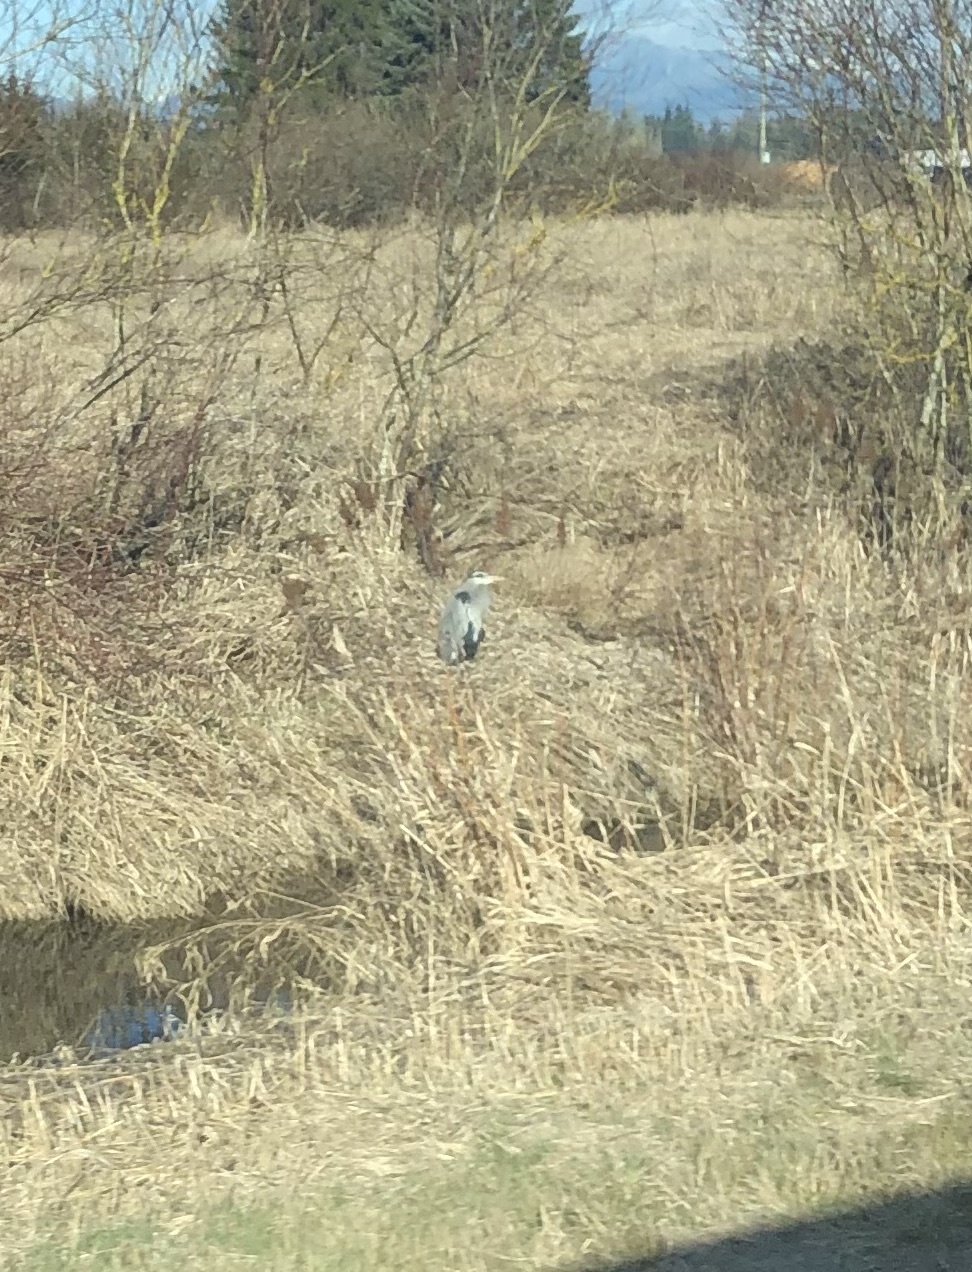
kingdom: Animalia
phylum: Chordata
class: Aves
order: Pelecaniformes
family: Ardeidae
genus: Ardea
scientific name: Ardea herodias
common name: Great blue heron
